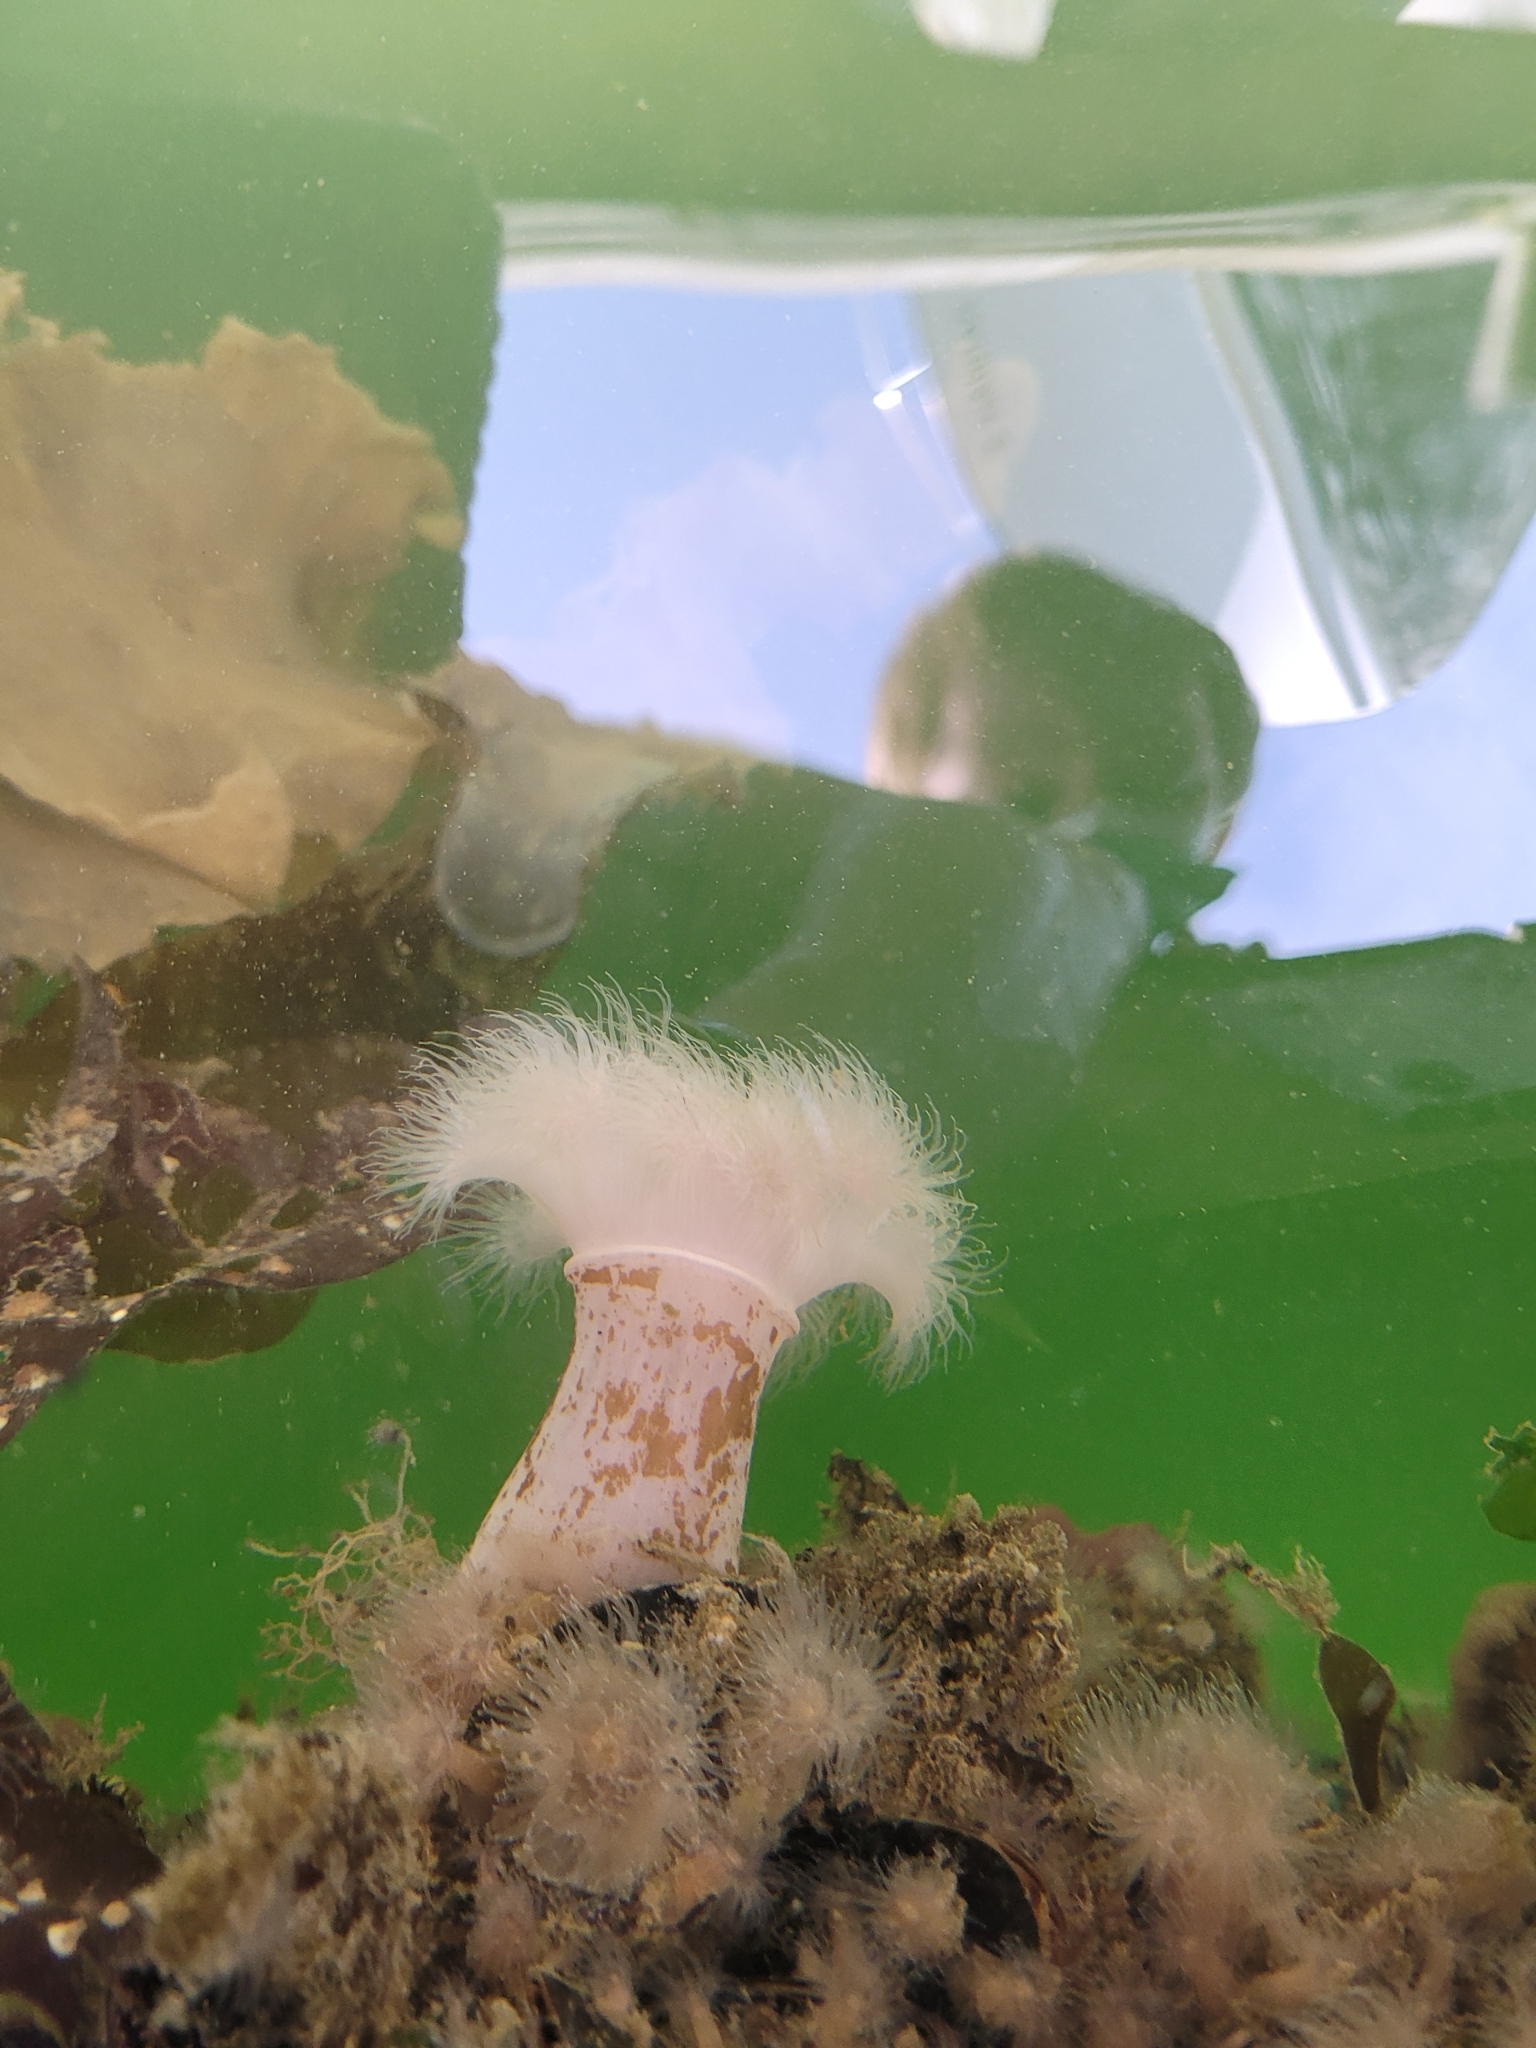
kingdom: Animalia
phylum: Cnidaria
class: Anthozoa
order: Actiniaria
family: Metridiidae
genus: Metridium
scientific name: Metridium senile
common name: Clonal plumose anemone
